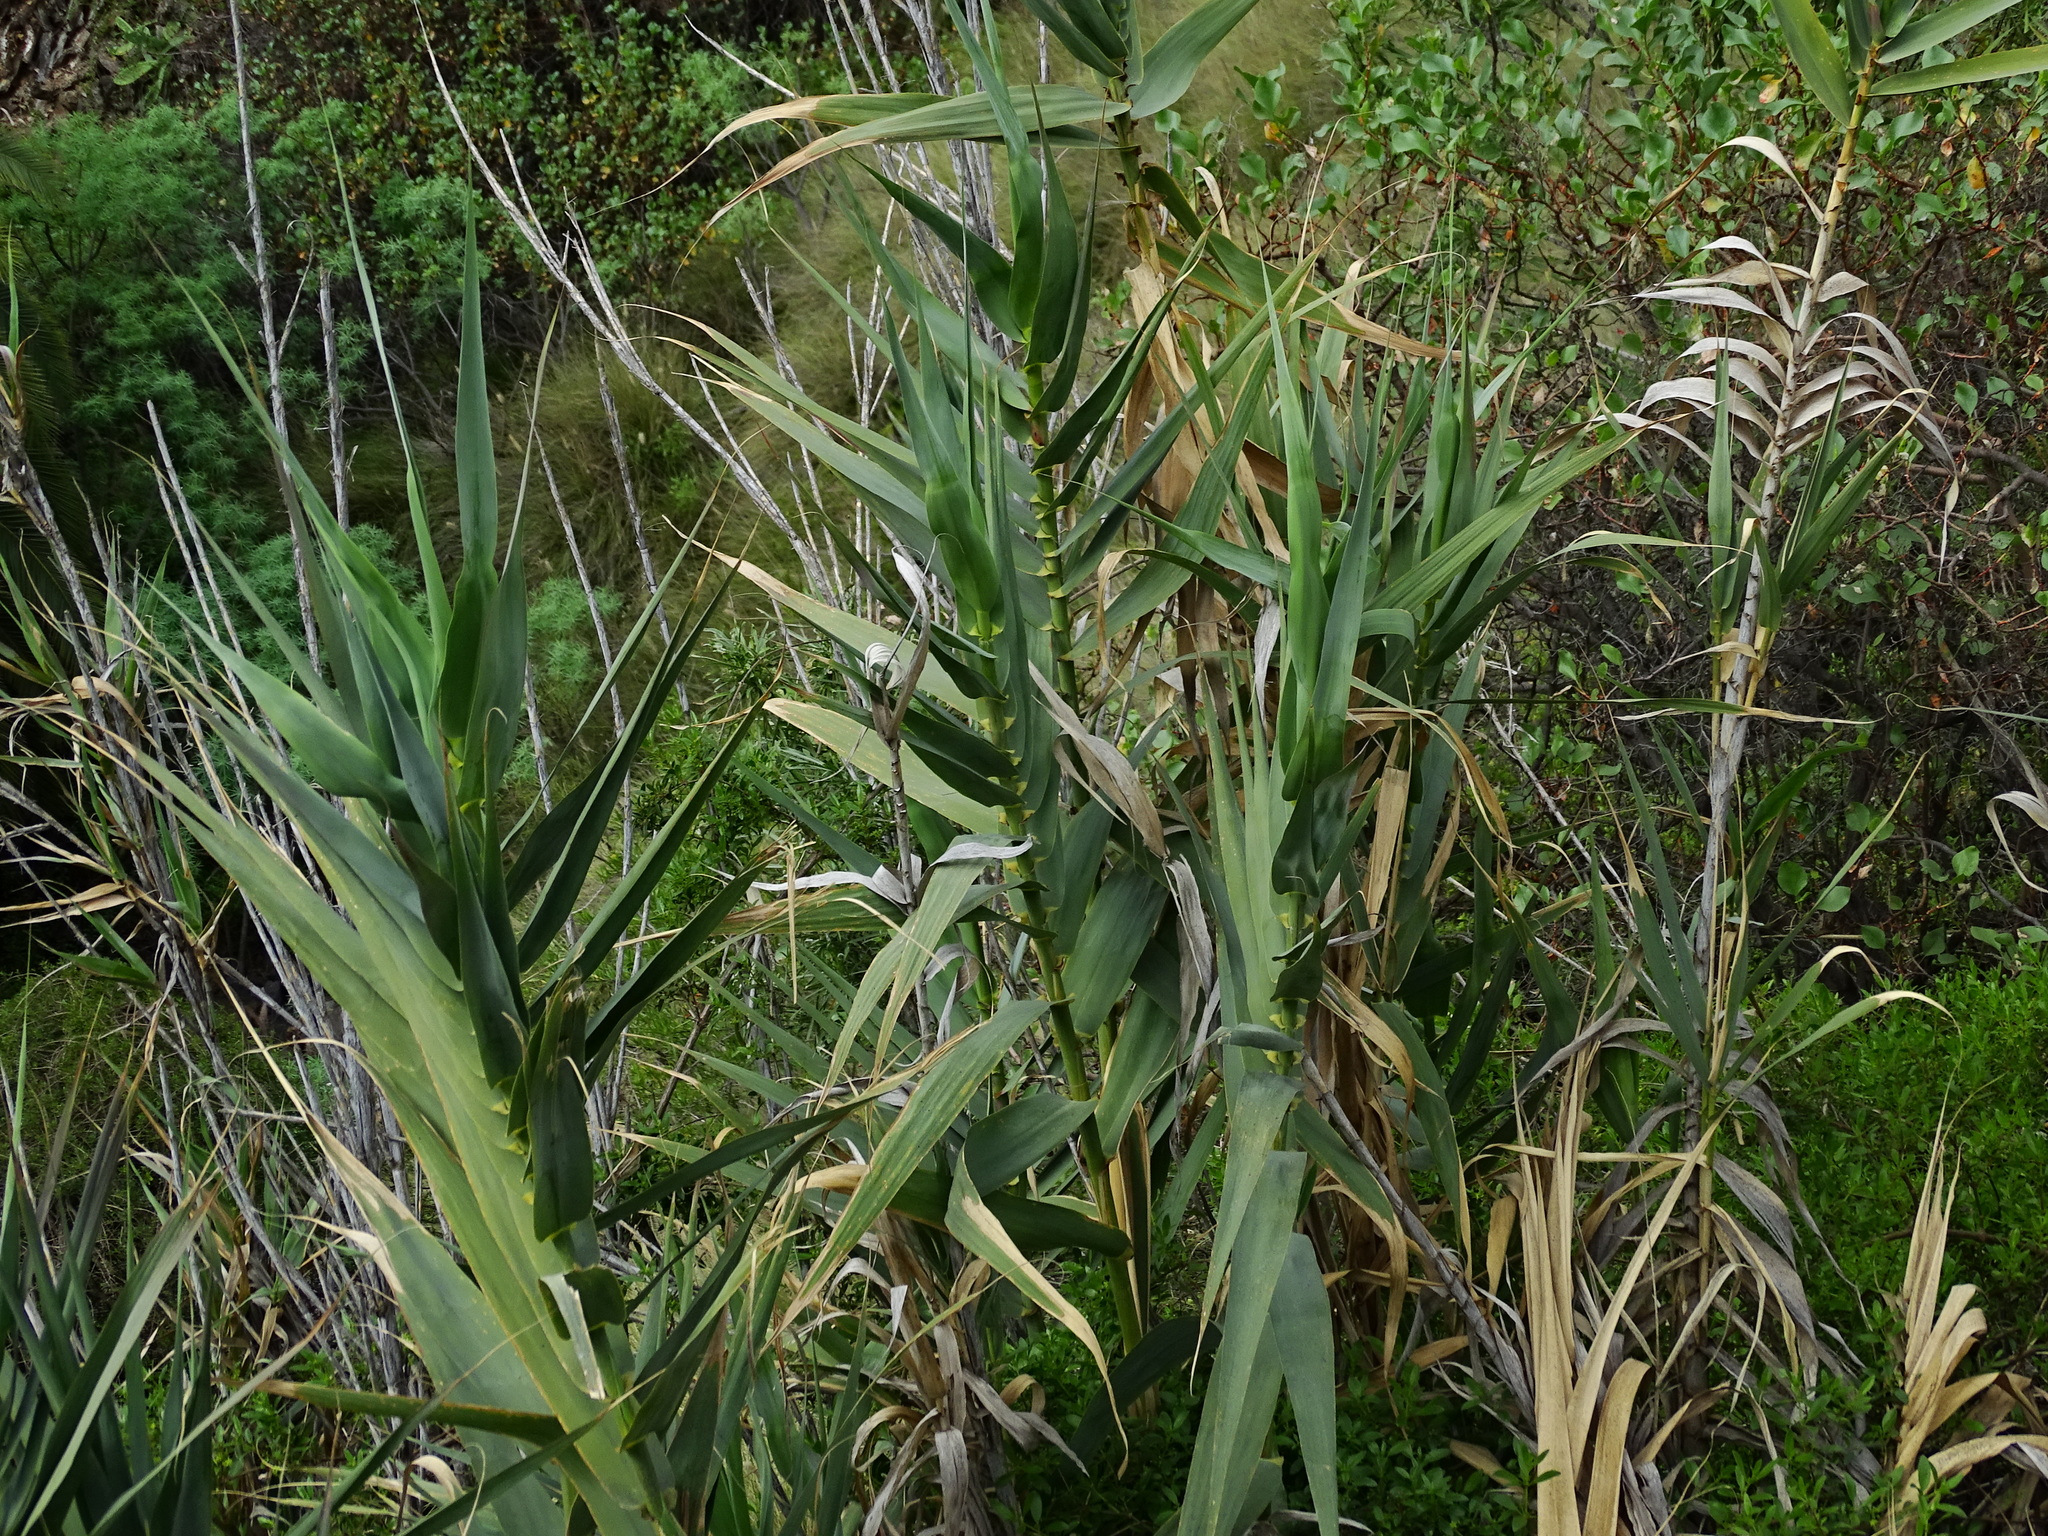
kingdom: Plantae
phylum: Tracheophyta
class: Liliopsida
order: Poales
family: Poaceae
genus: Arundo
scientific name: Arundo donax
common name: Giant reed
